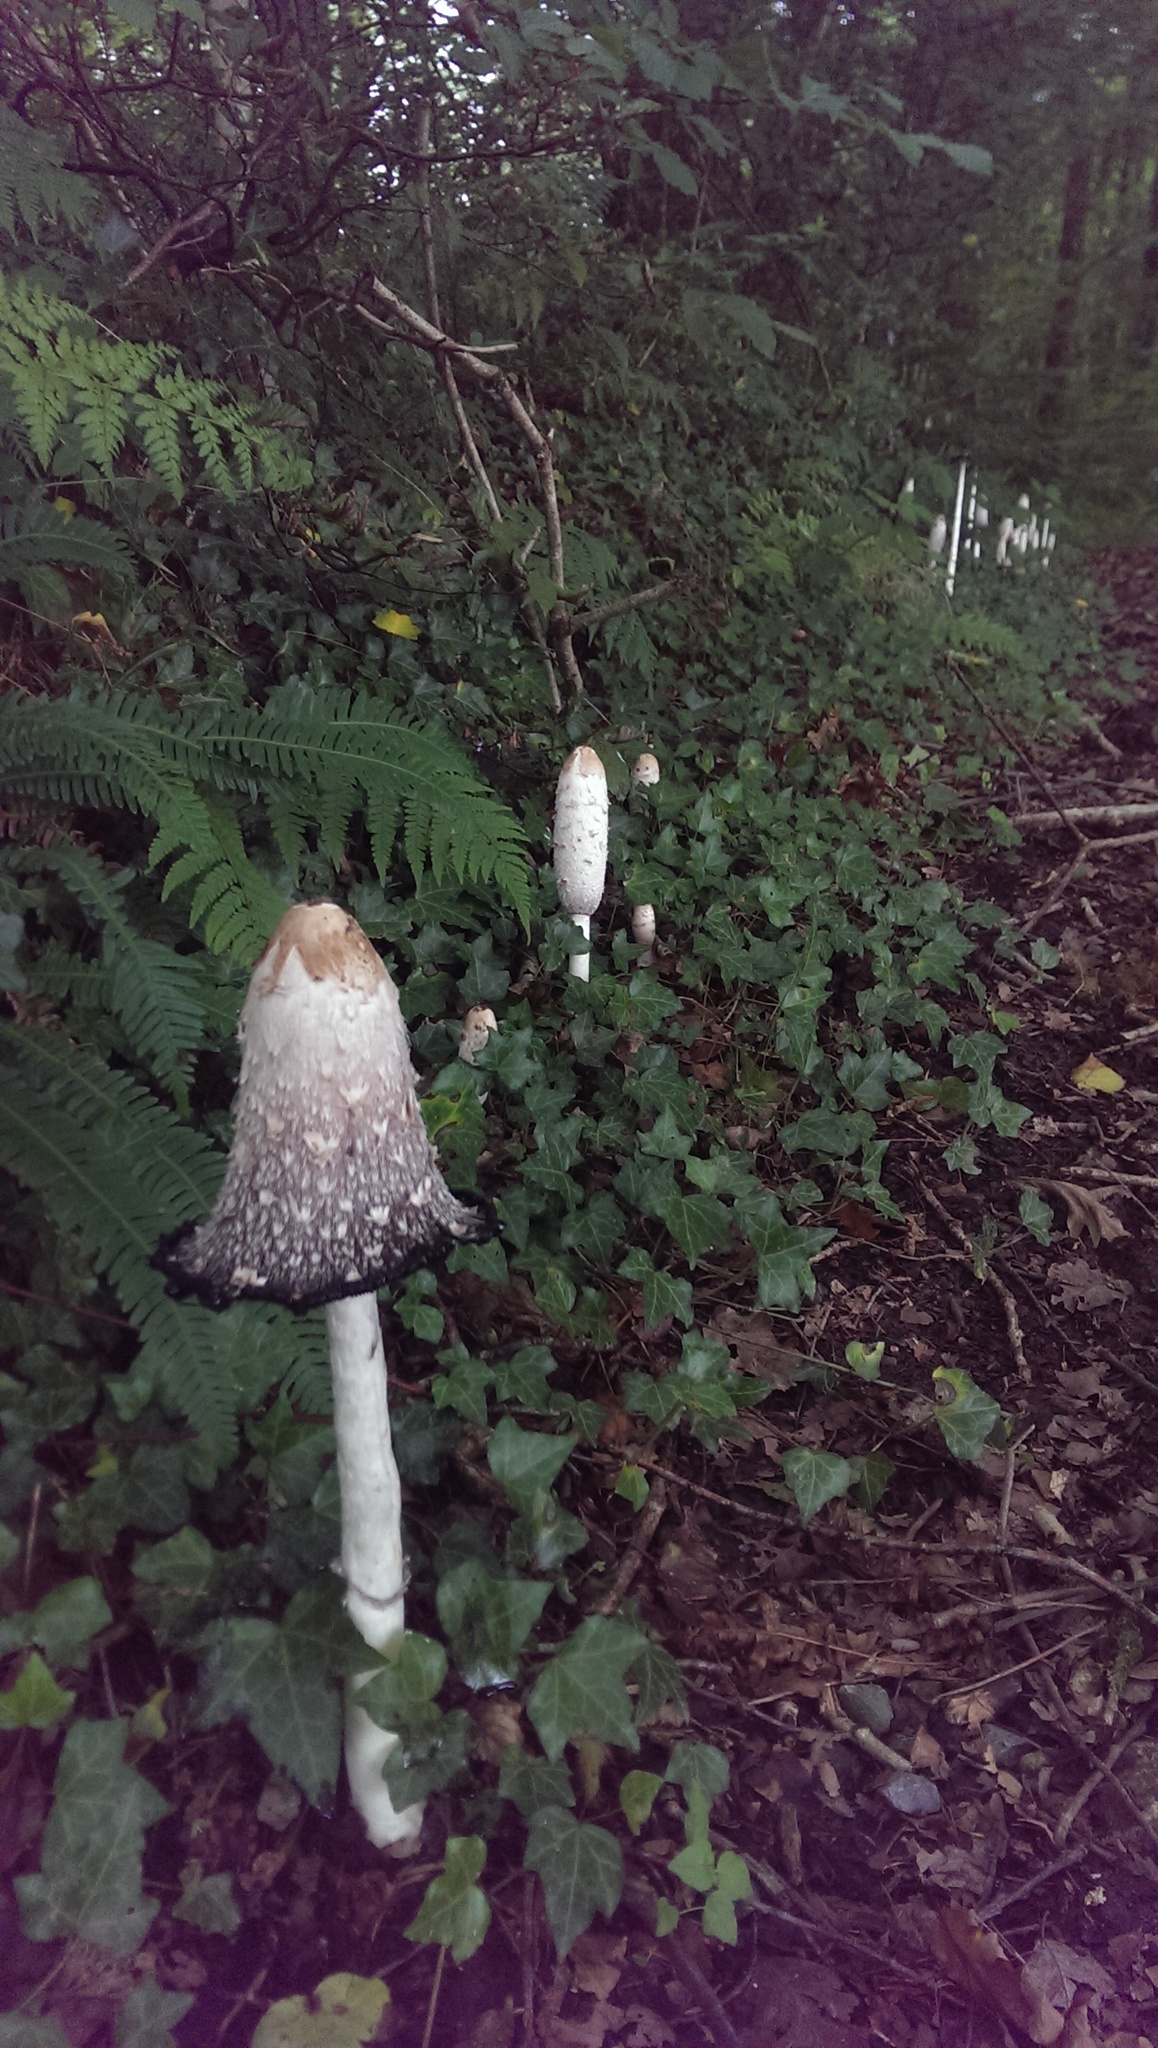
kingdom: Fungi
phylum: Basidiomycota
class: Agaricomycetes
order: Agaricales
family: Agaricaceae
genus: Coprinus
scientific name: Coprinus comatus
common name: Lawyer's wig
